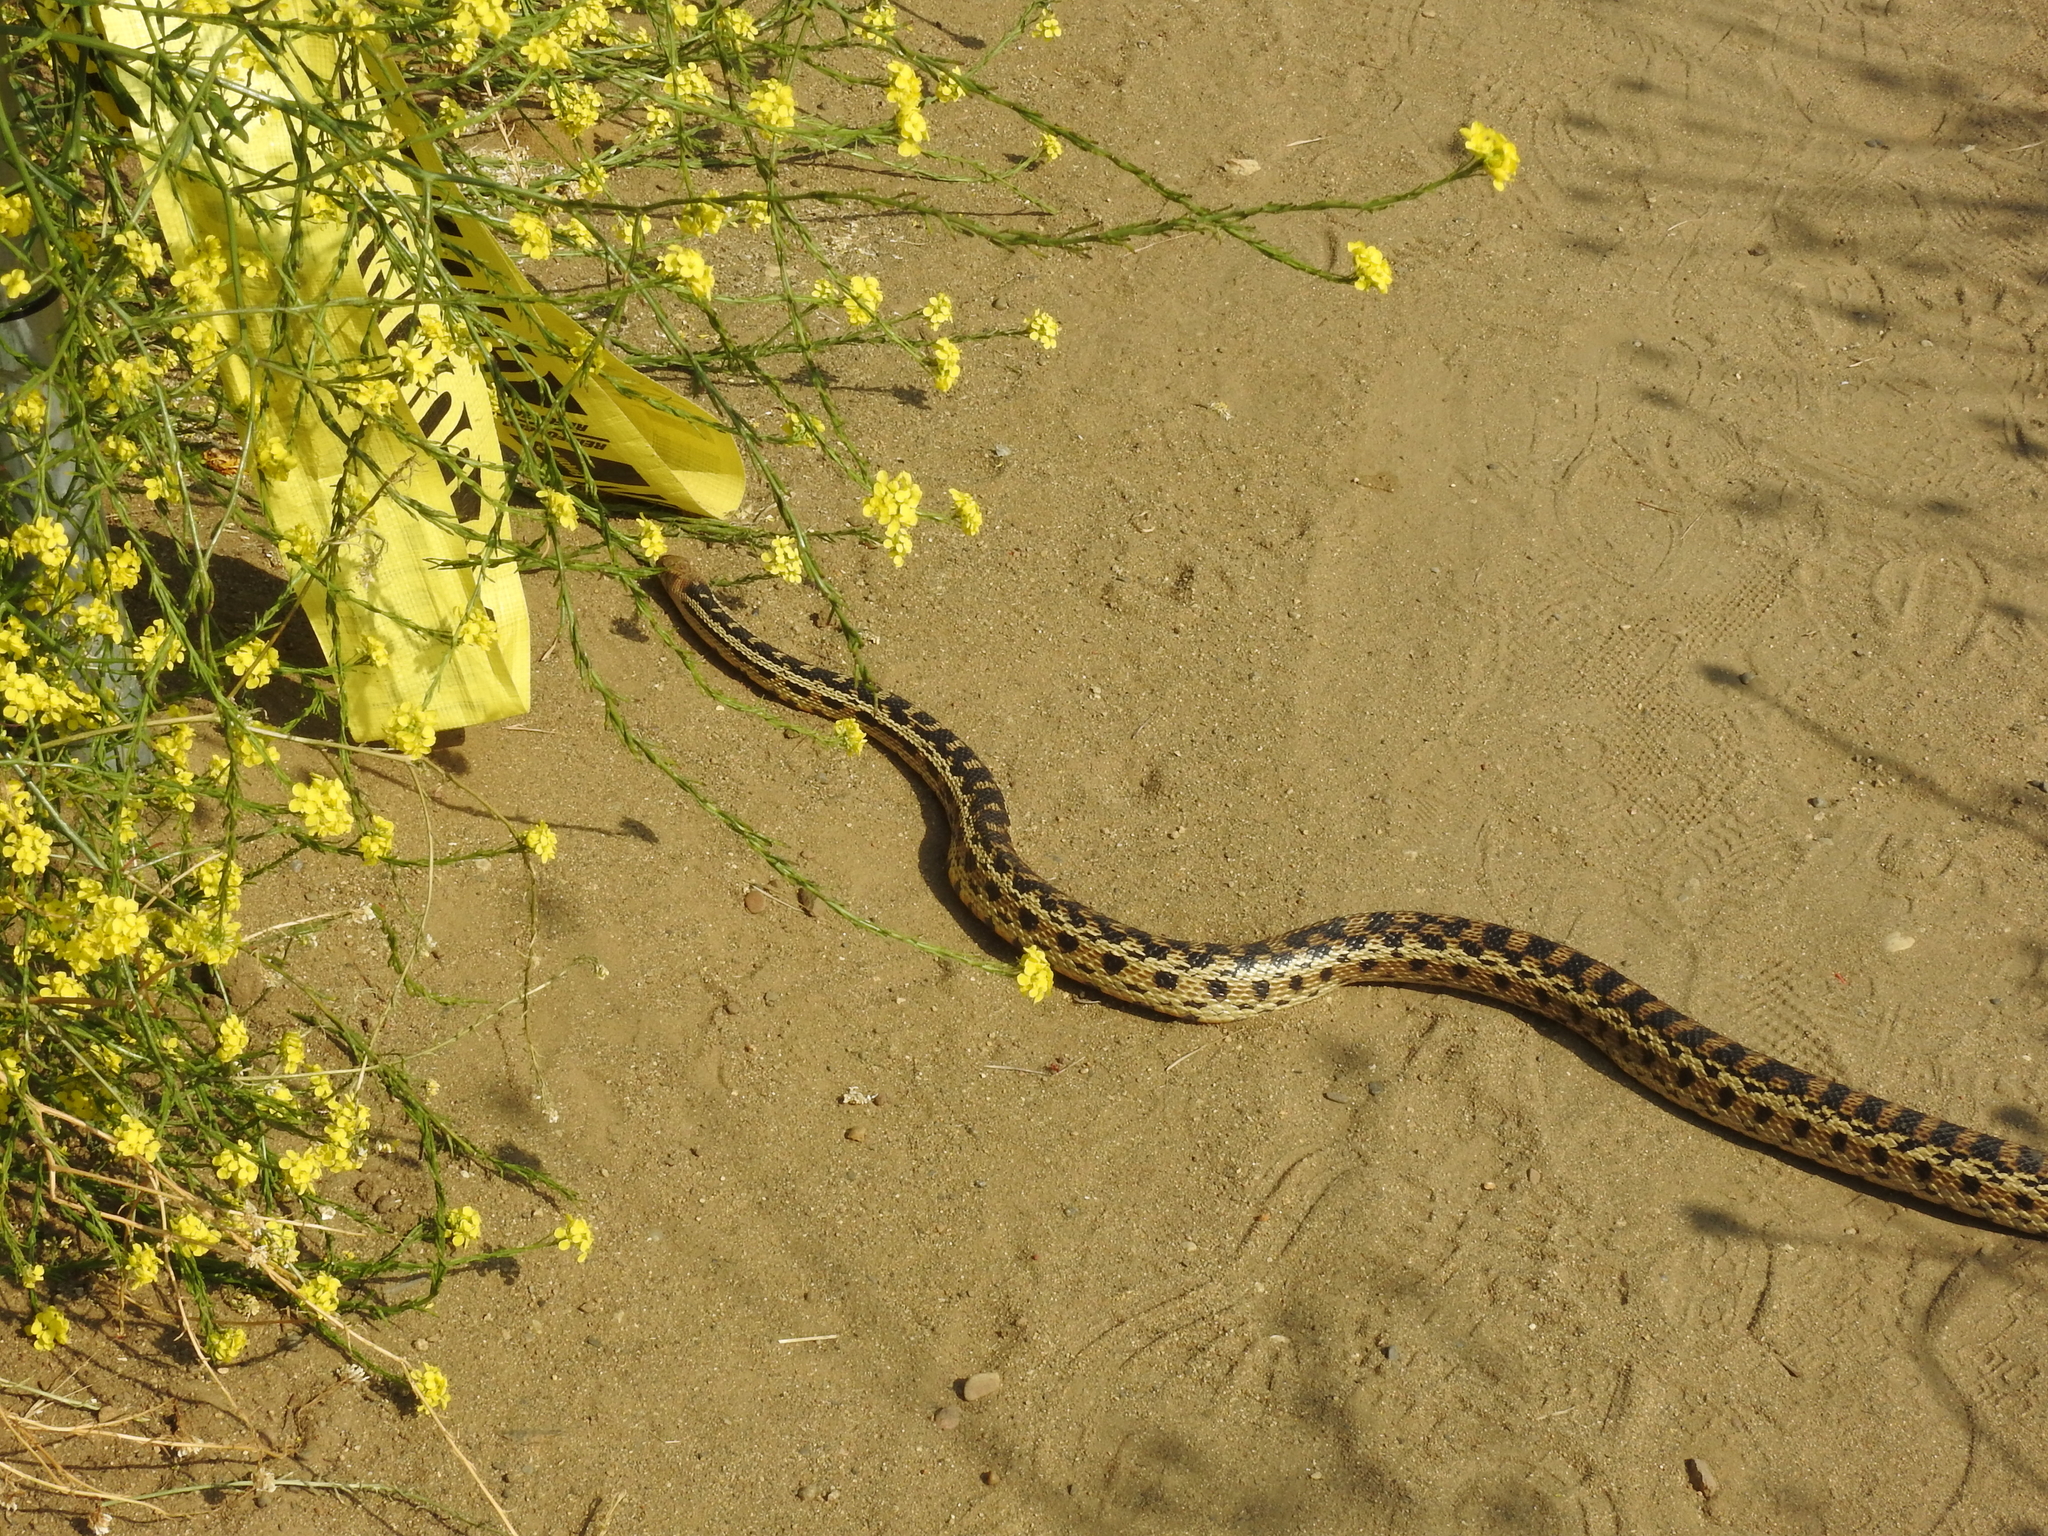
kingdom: Animalia
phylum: Chordata
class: Squamata
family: Colubridae
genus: Pituophis
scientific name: Pituophis catenifer
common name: Gopher snake
